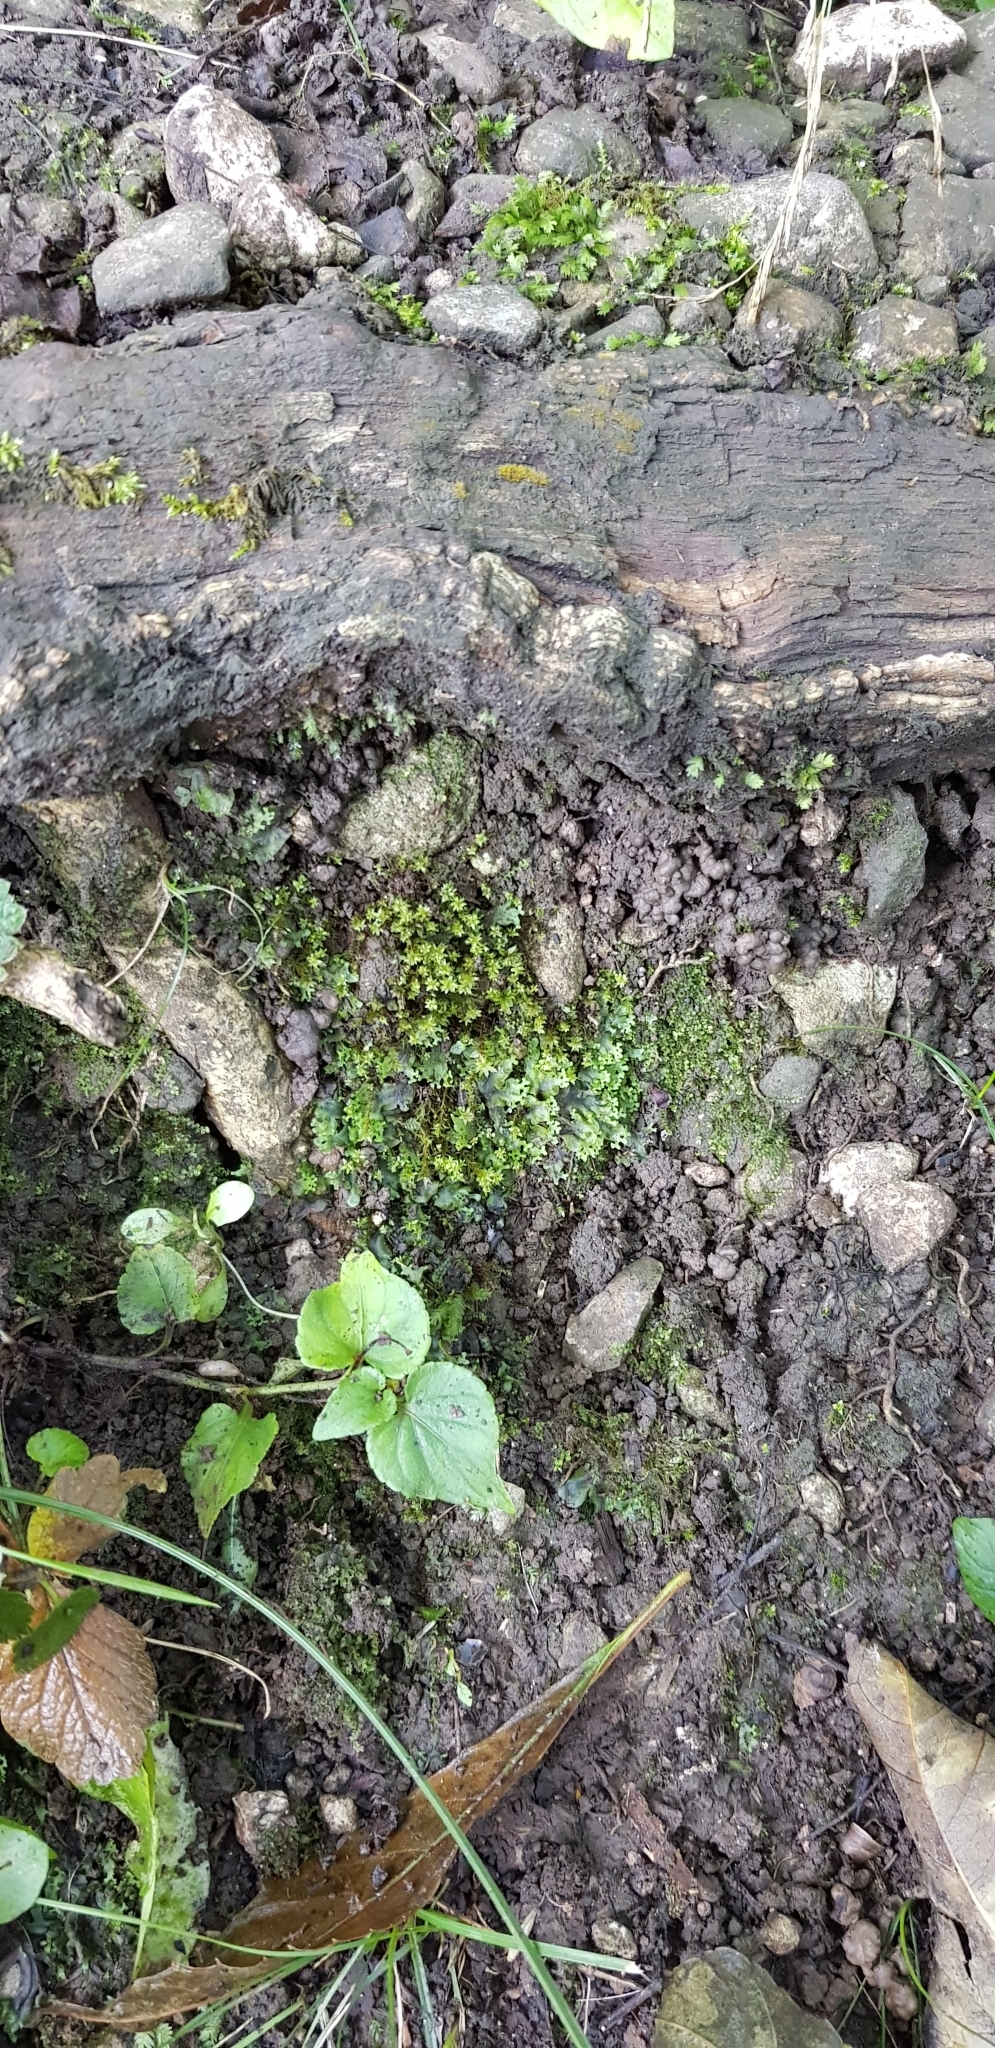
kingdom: Plantae
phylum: Bryophyta
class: Bryopsida
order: Bryales
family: Bryaceae
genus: Ptychostomum
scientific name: Ptychostomum pseudotriquetrum
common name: Long-leaved thread moss
